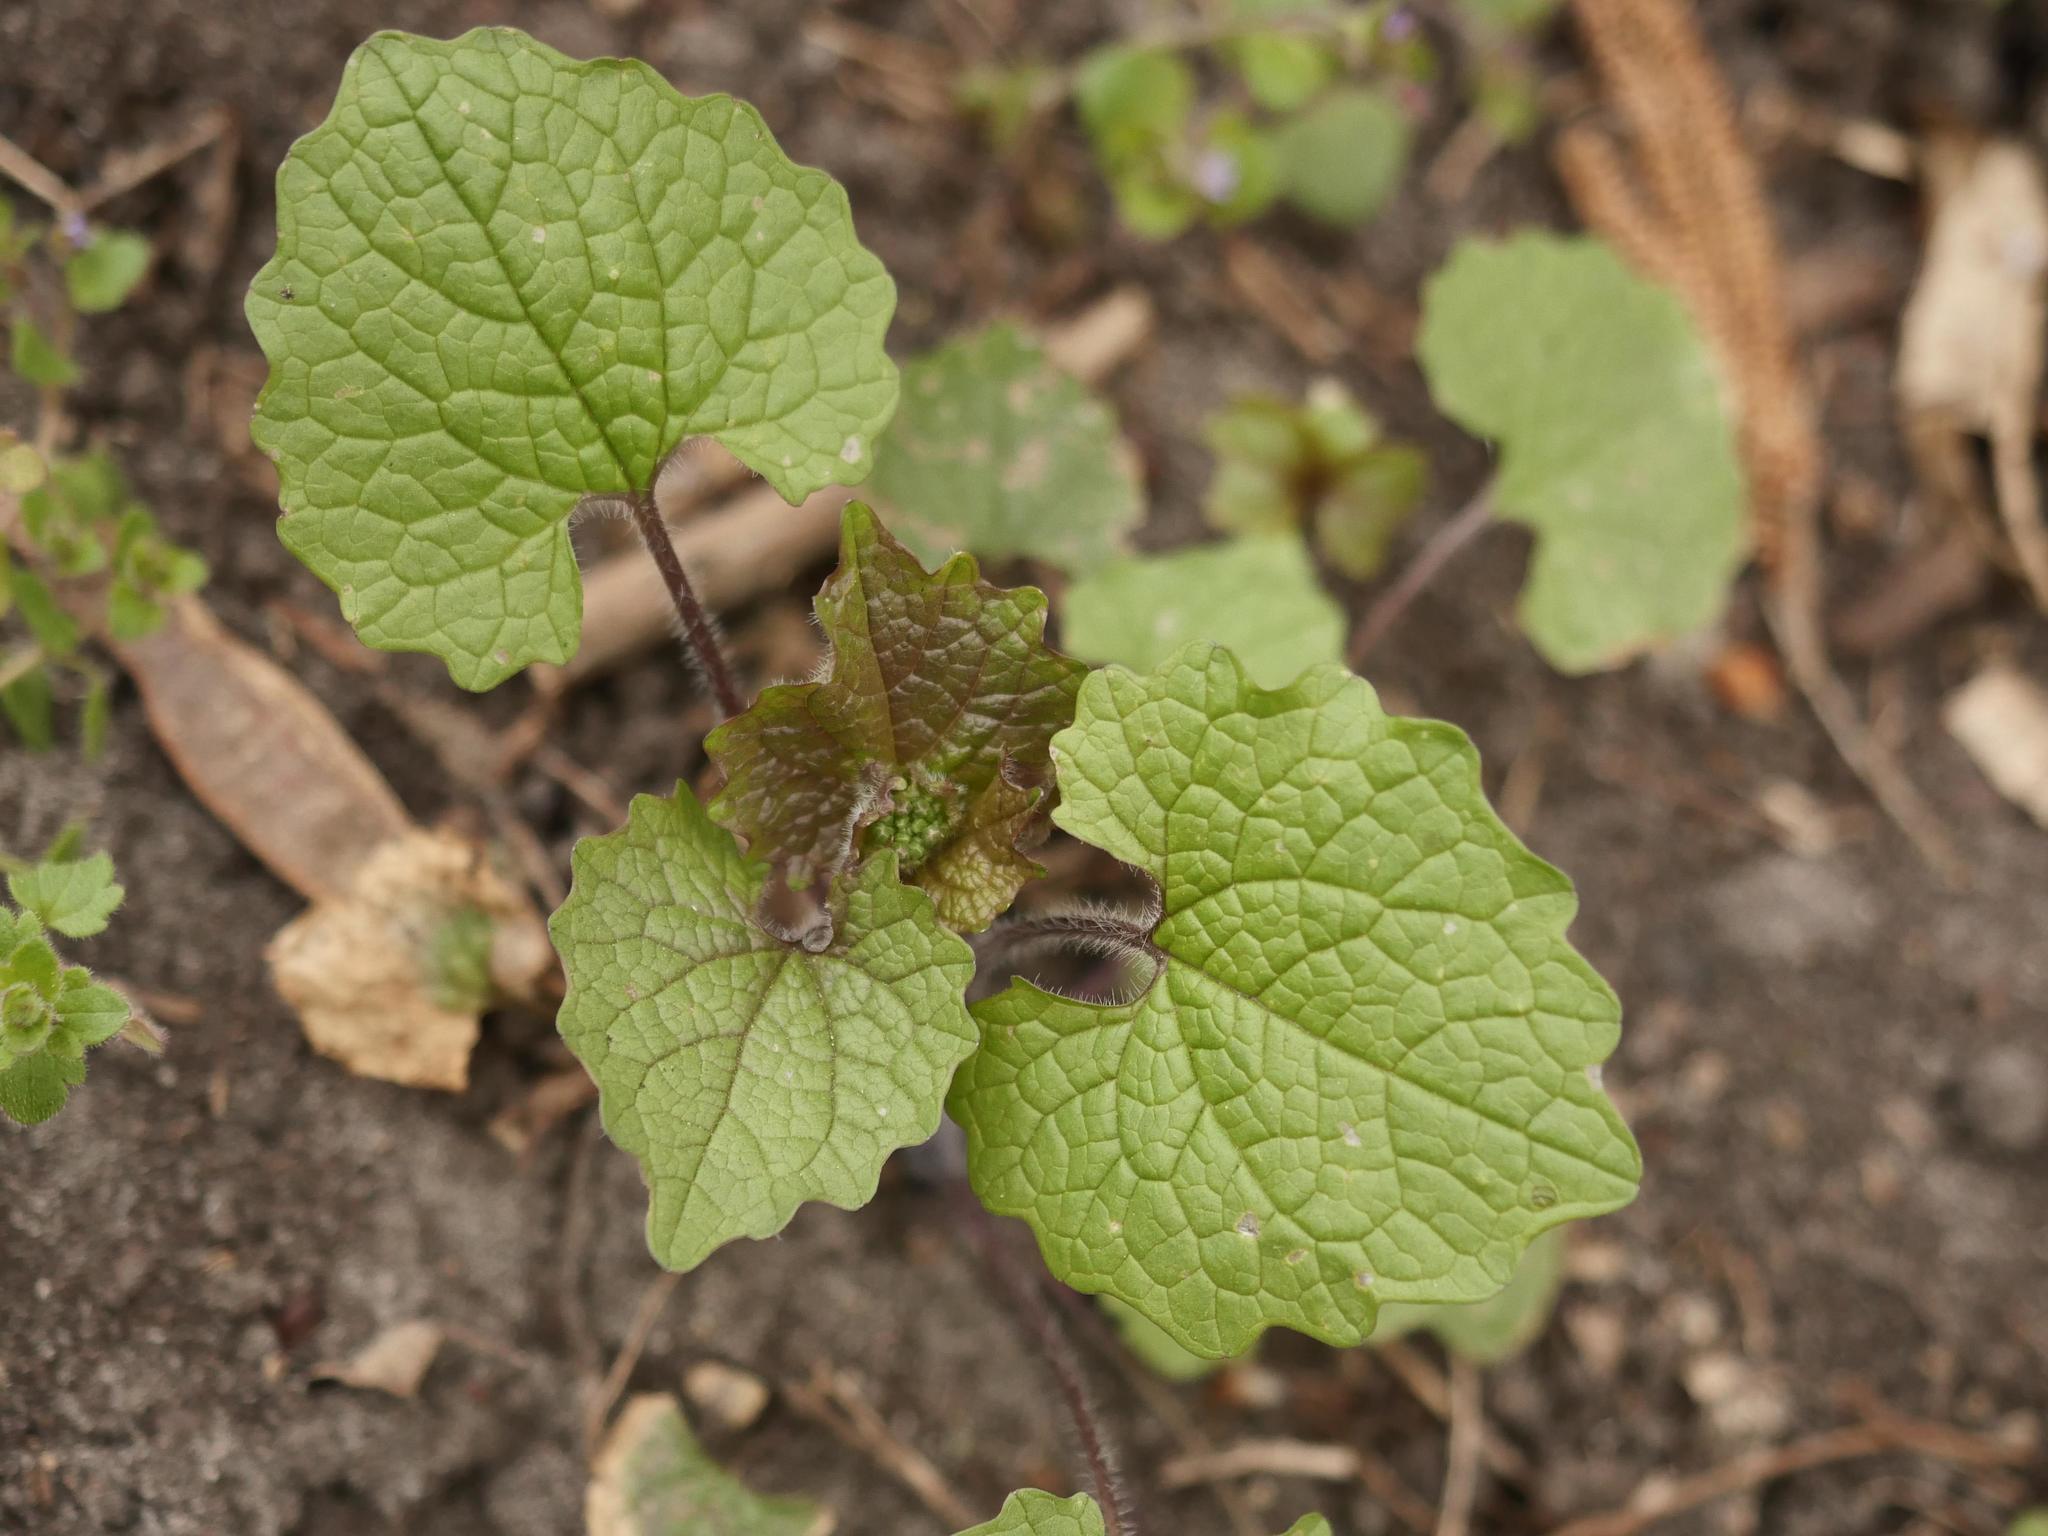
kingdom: Plantae
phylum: Tracheophyta
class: Magnoliopsida
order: Brassicales
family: Brassicaceae
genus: Alliaria
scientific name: Alliaria petiolata
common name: Garlic mustard
